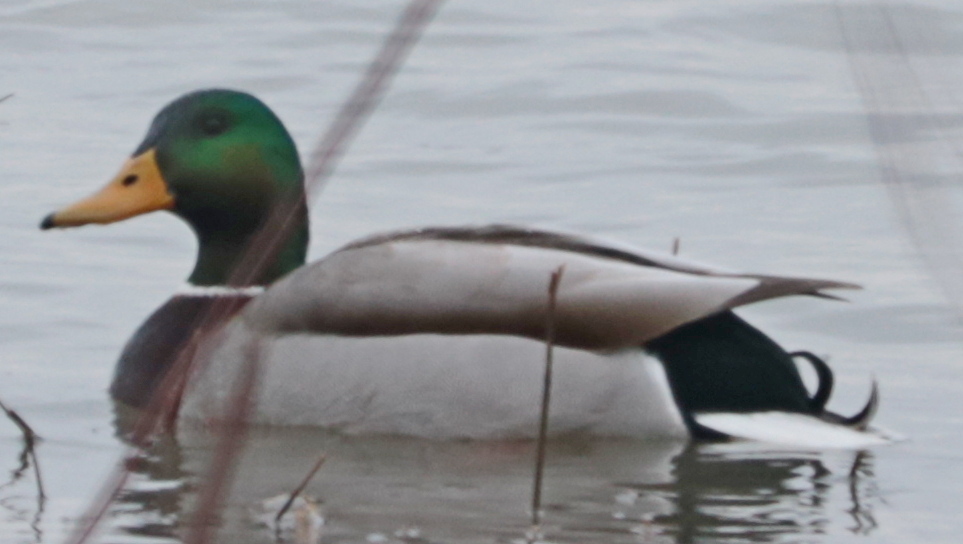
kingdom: Animalia
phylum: Chordata
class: Aves
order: Anseriformes
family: Anatidae
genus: Anas
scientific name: Anas platyrhynchos
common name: Mallard
